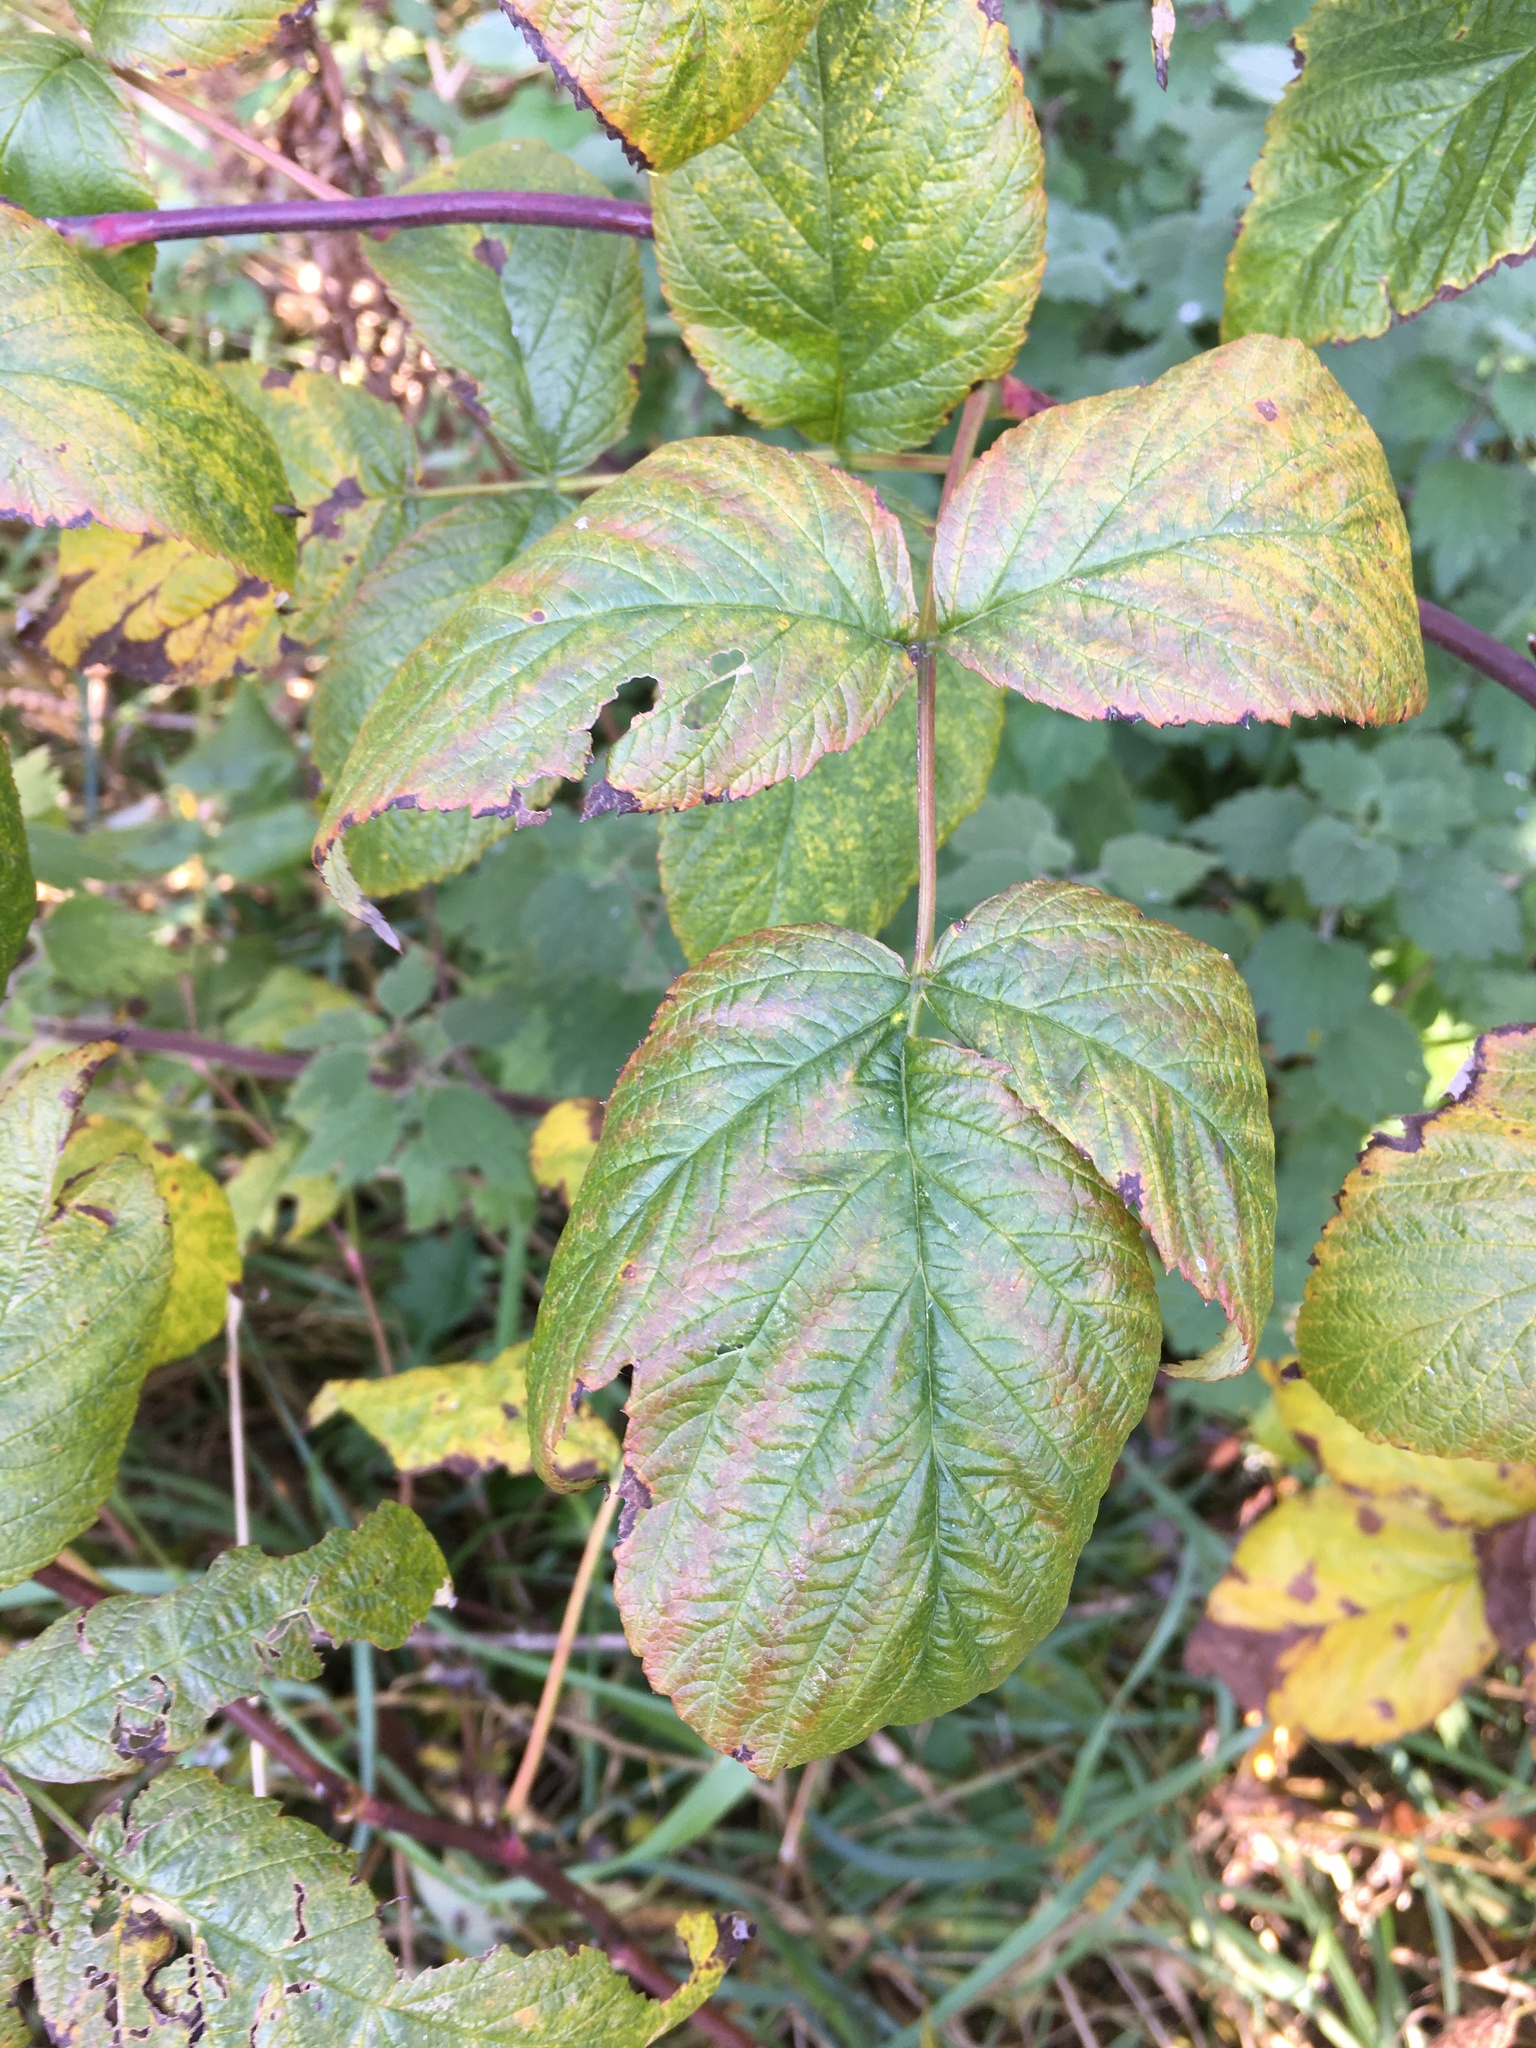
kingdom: Plantae
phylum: Tracheophyta
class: Magnoliopsida
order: Rosales
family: Rosaceae
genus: Rubus
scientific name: Rubus idaeus
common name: Raspberry
